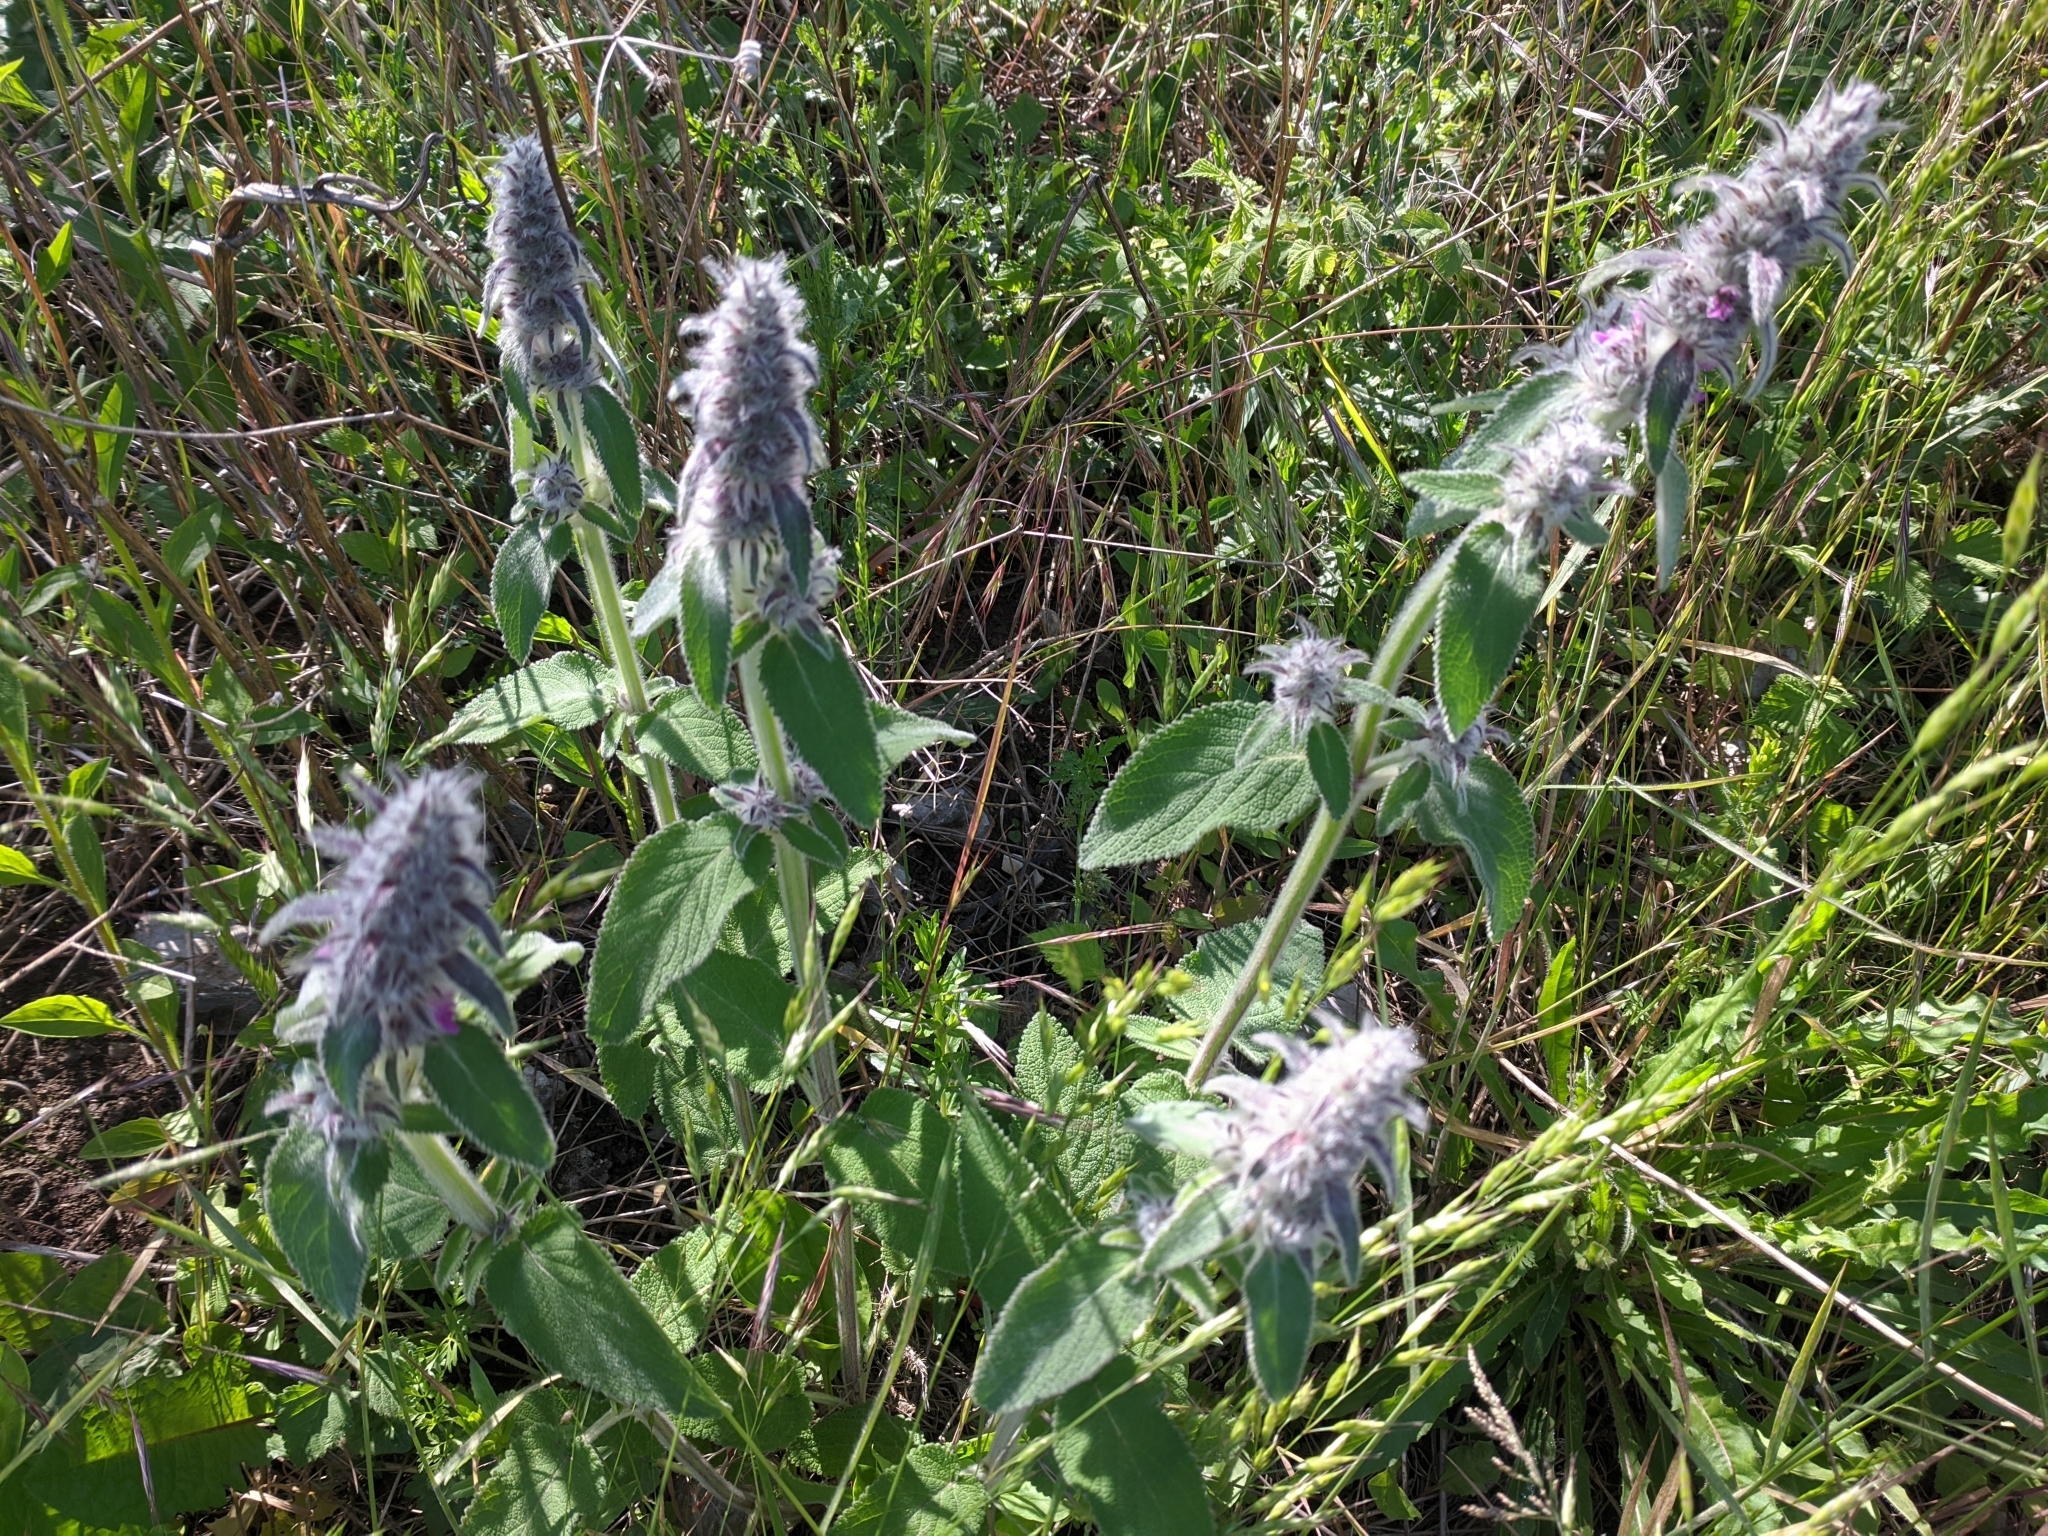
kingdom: Plantae
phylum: Tracheophyta
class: Magnoliopsida
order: Lamiales
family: Lamiaceae
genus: Stachys
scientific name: Stachys germanica
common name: Downy woundwort
